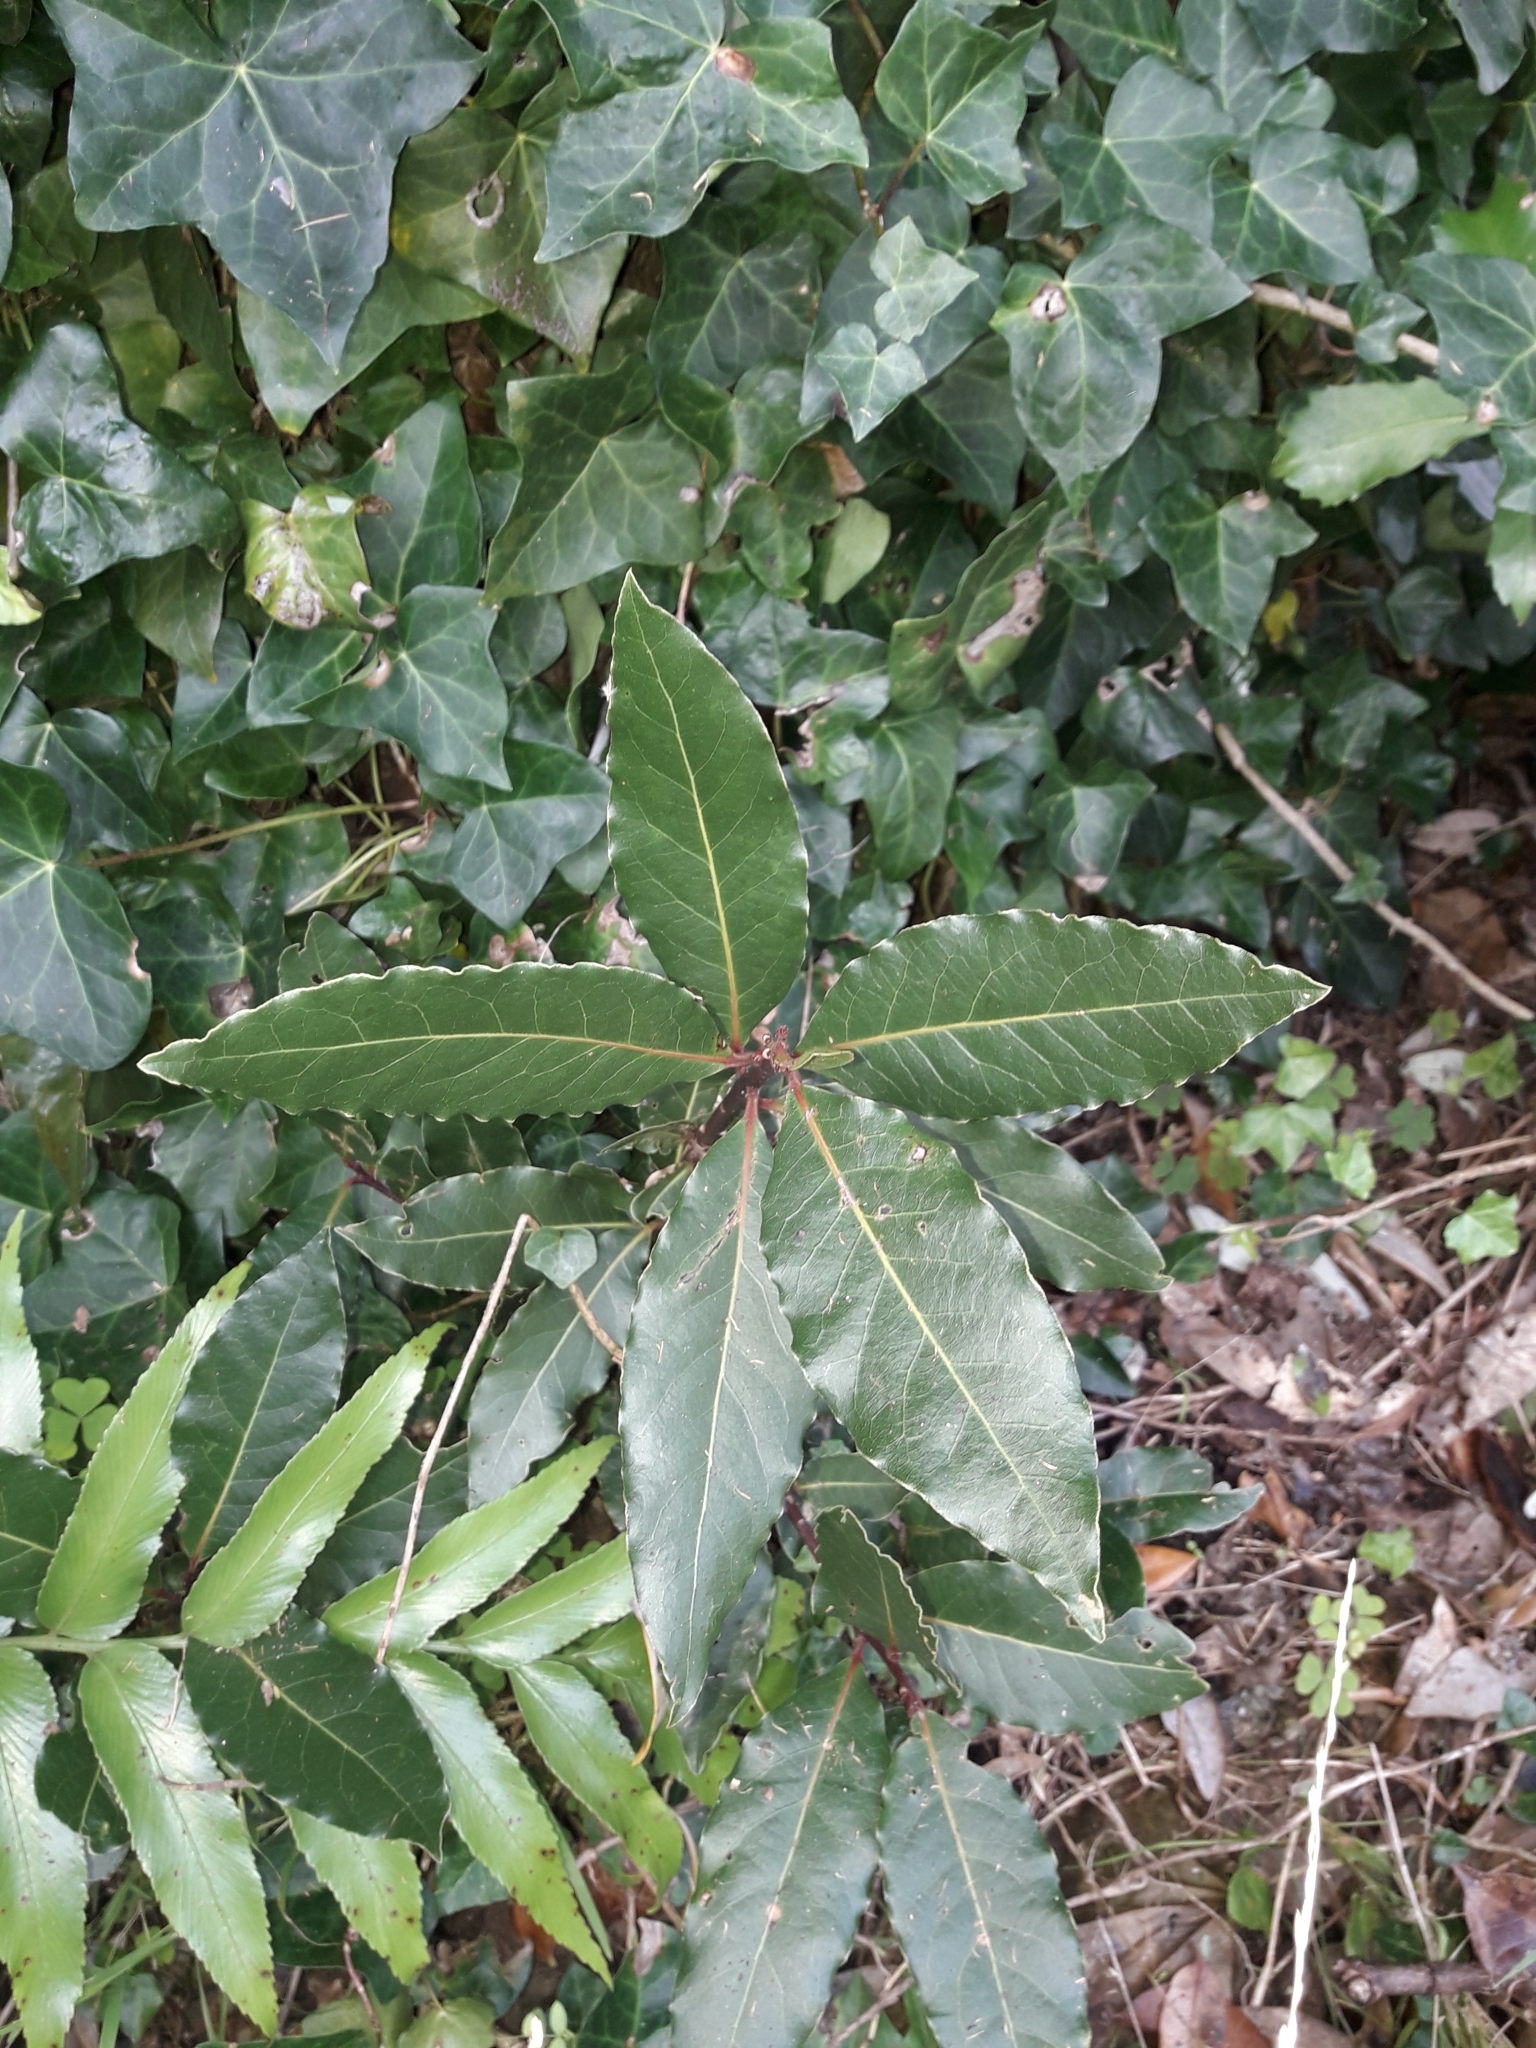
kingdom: Plantae
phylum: Tracheophyta
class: Magnoliopsida
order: Laurales
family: Lauraceae
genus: Laurus
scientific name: Laurus nobilis
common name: Bay
